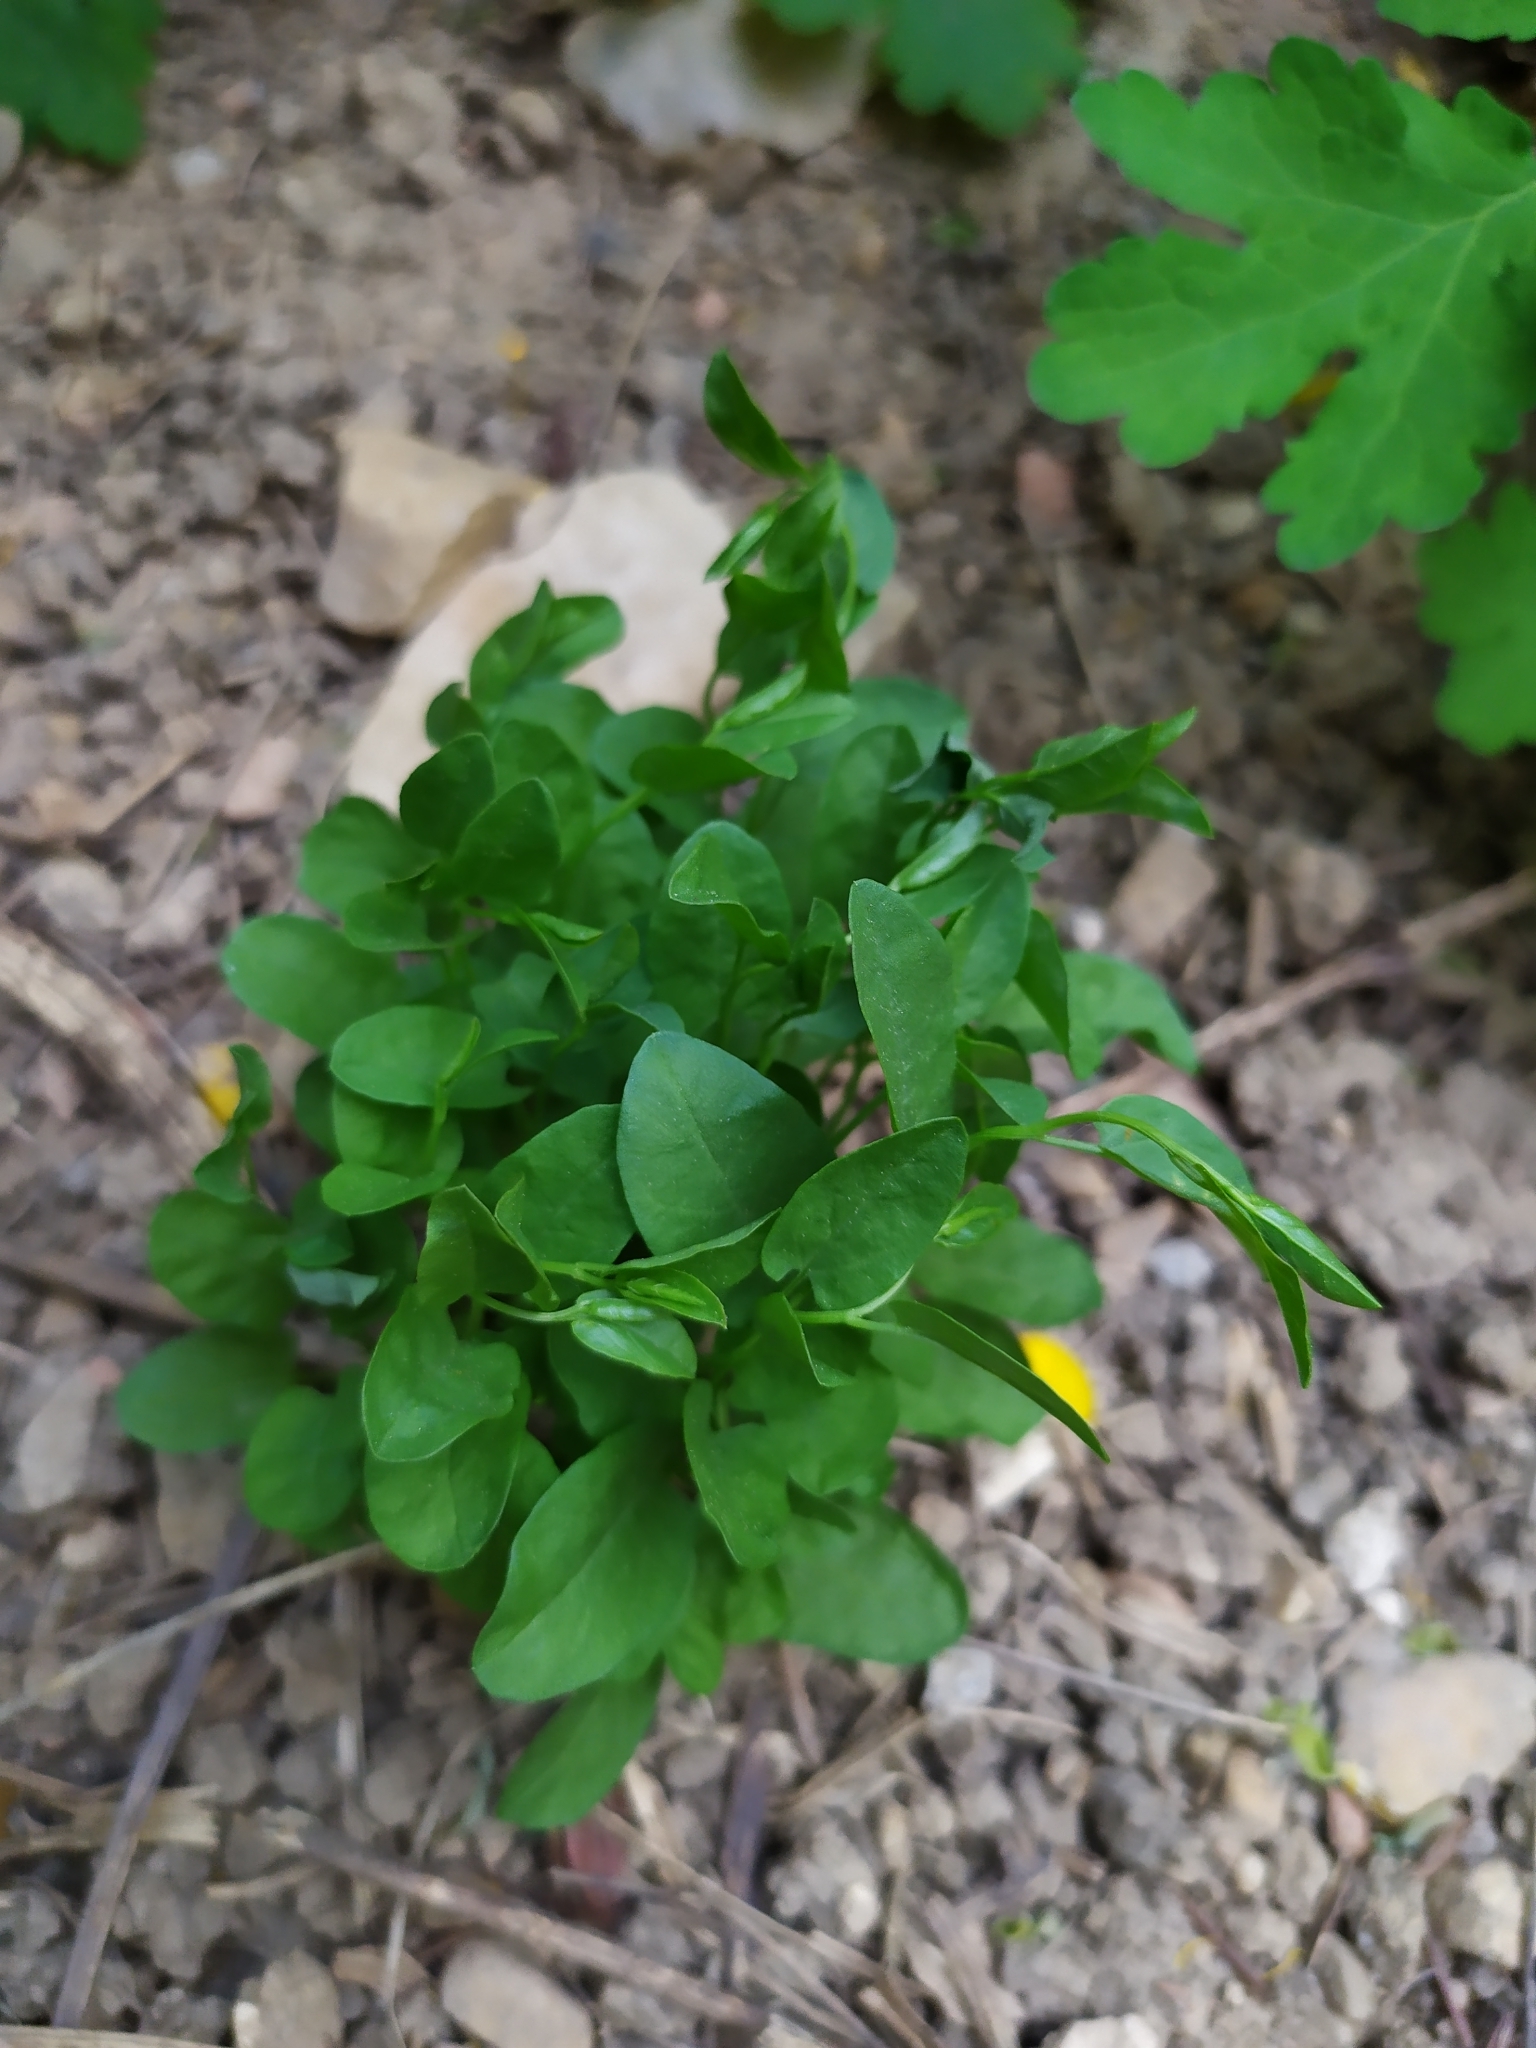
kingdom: Plantae
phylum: Tracheophyta
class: Magnoliopsida
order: Solanales
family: Convolvulaceae
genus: Convolvulus
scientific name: Convolvulus arvensis
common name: Field bindweed
